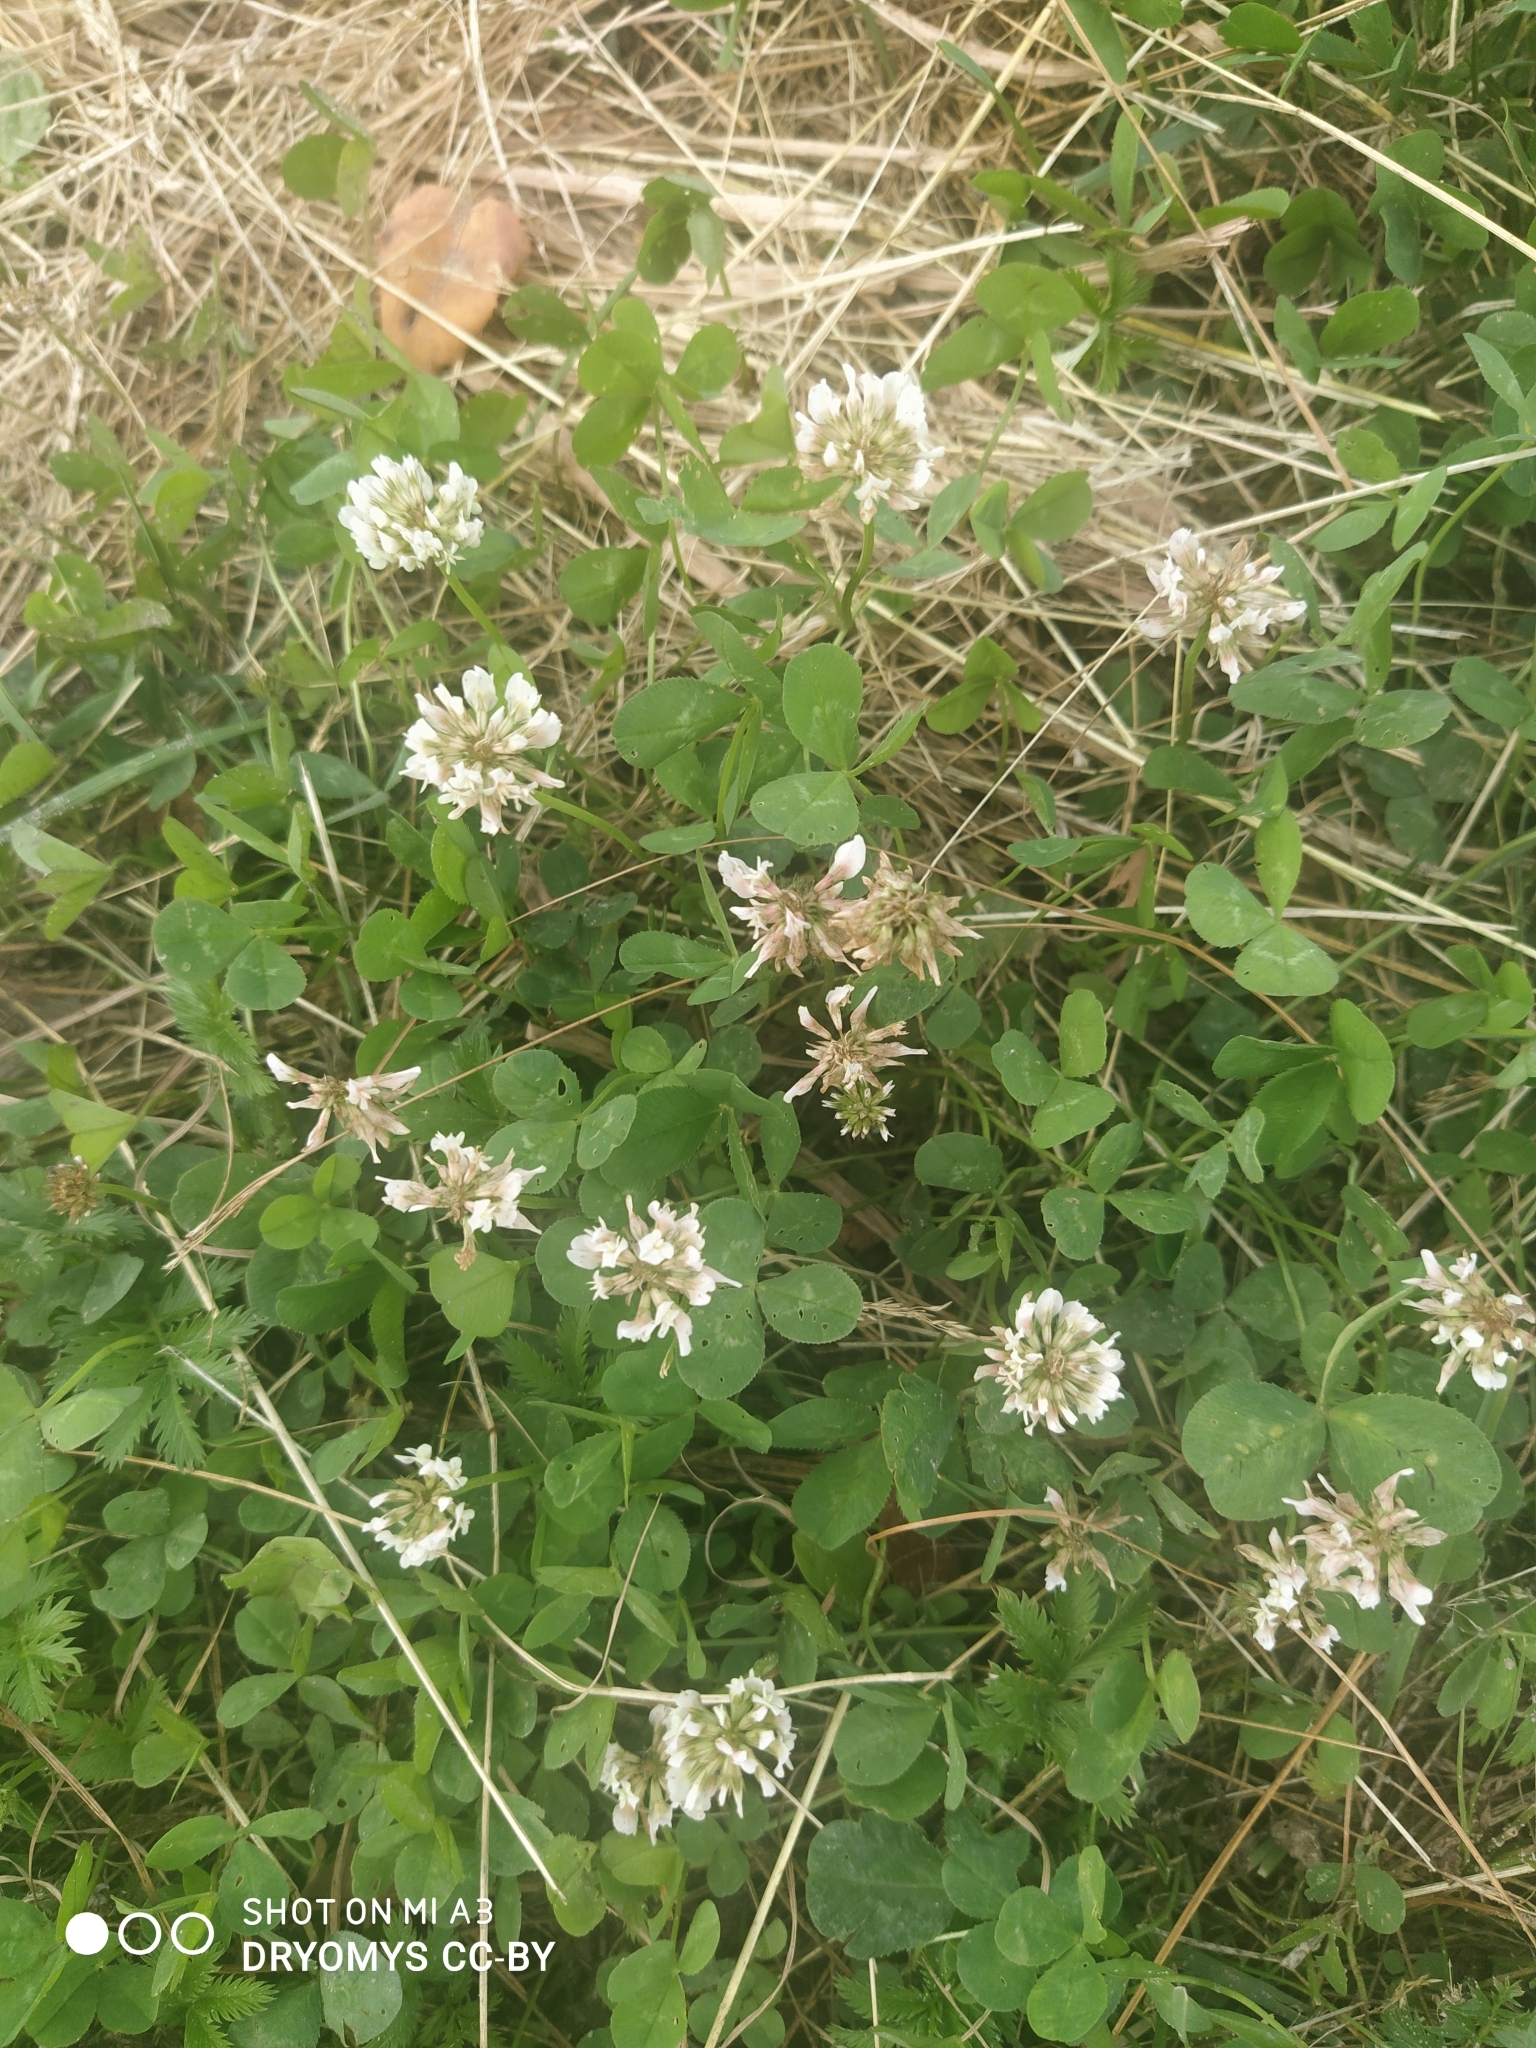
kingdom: Plantae
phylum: Tracheophyta
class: Magnoliopsida
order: Fabales
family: Fabaceae
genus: Trifolium
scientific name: Trifolium repens
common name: White clover
